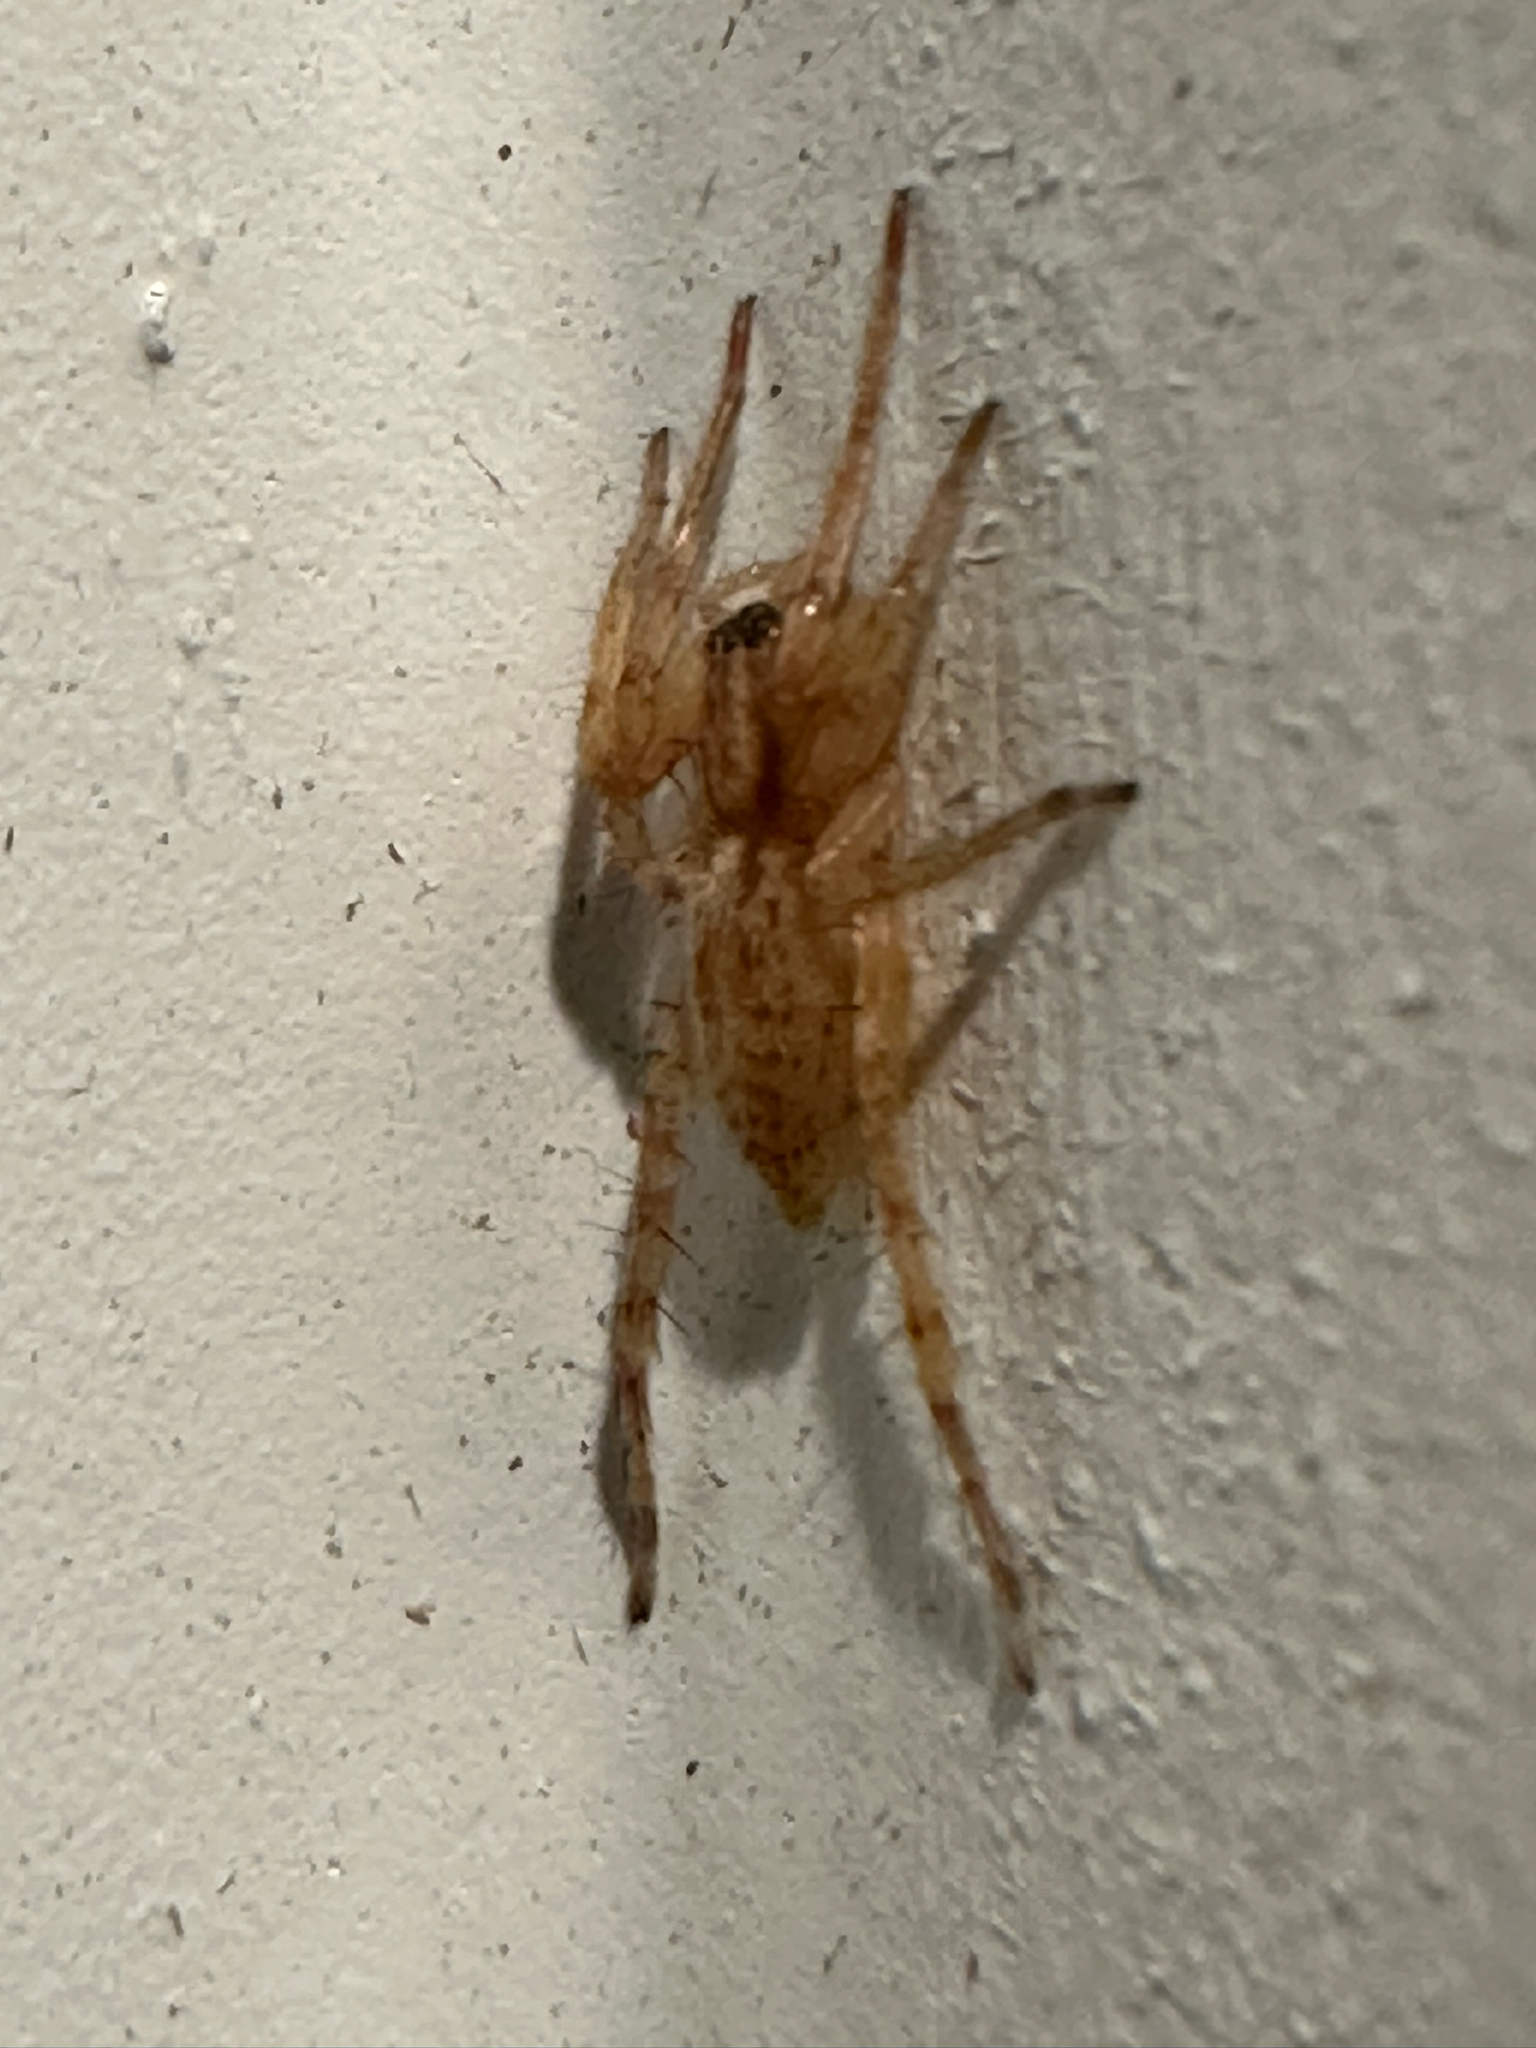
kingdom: Animalia
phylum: Arthropoda
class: Arachnida
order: Araneae
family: Anyphaenidae
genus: Hibana
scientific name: Hibana gracilis
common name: Garden ghost spider
